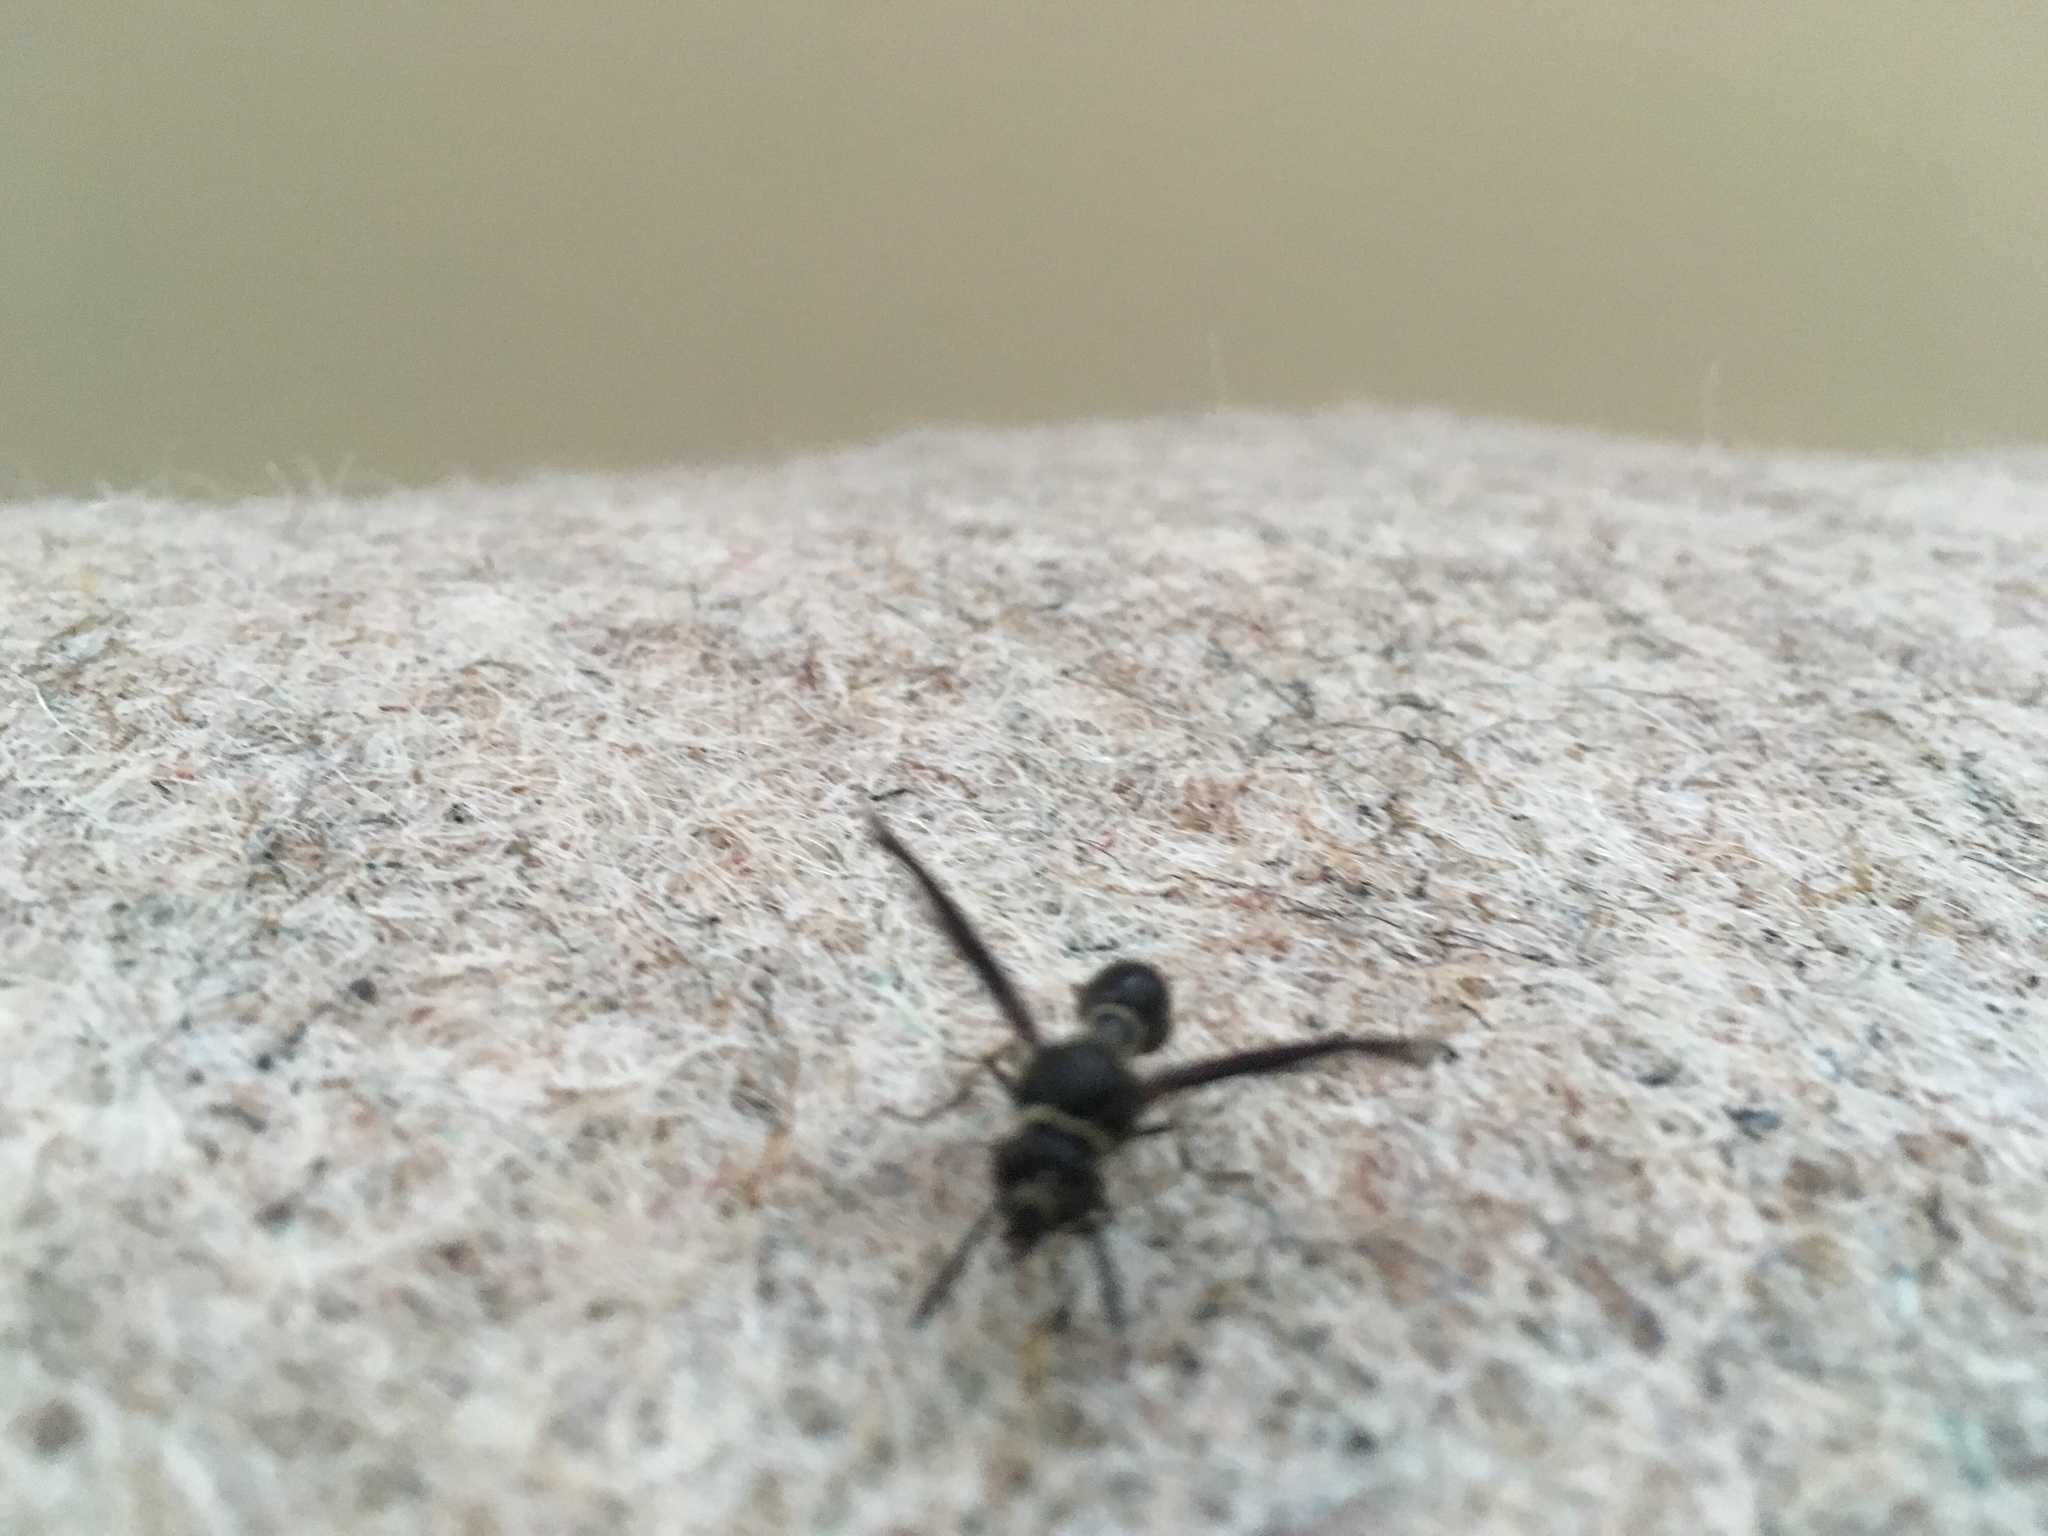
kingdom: Animalia
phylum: Arthropoda
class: Insecta
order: Hymenoptera
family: Vespidae
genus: Eumenes
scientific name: Eumenes fraternus
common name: Fraternal potter wasp
